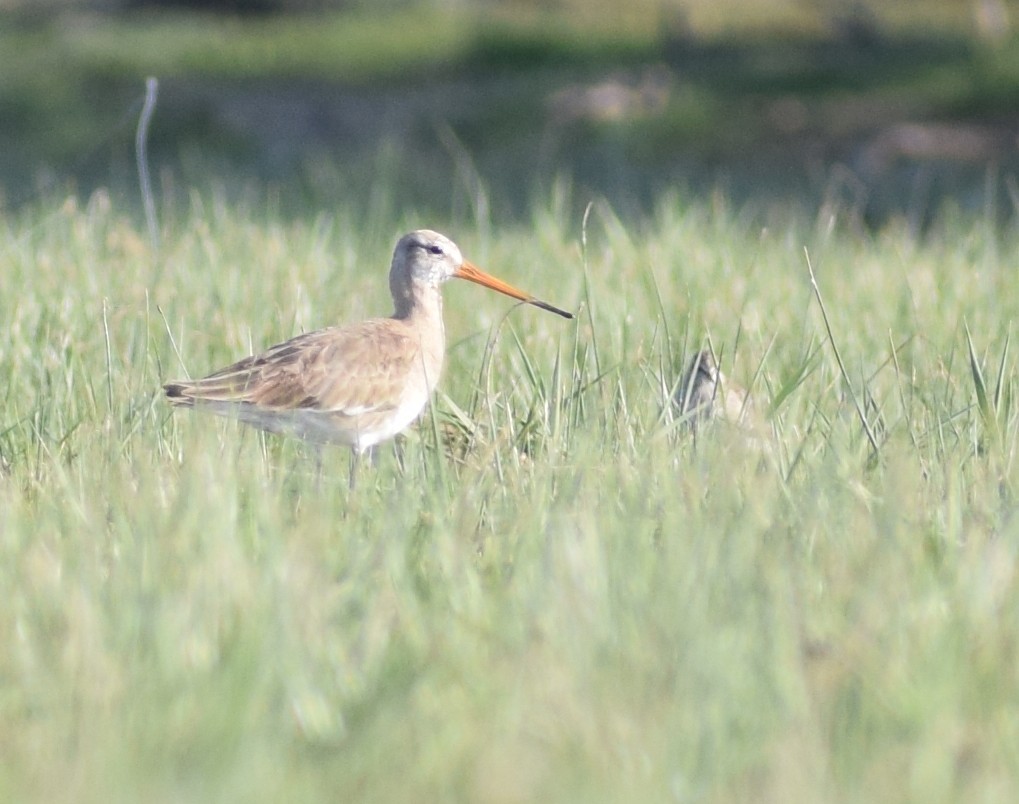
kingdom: Animalia
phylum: Chordata
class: Aves
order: Charadriiformes
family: Scolopacidae
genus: Limosa
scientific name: Limosa limosa
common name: Black-tailed godwit
